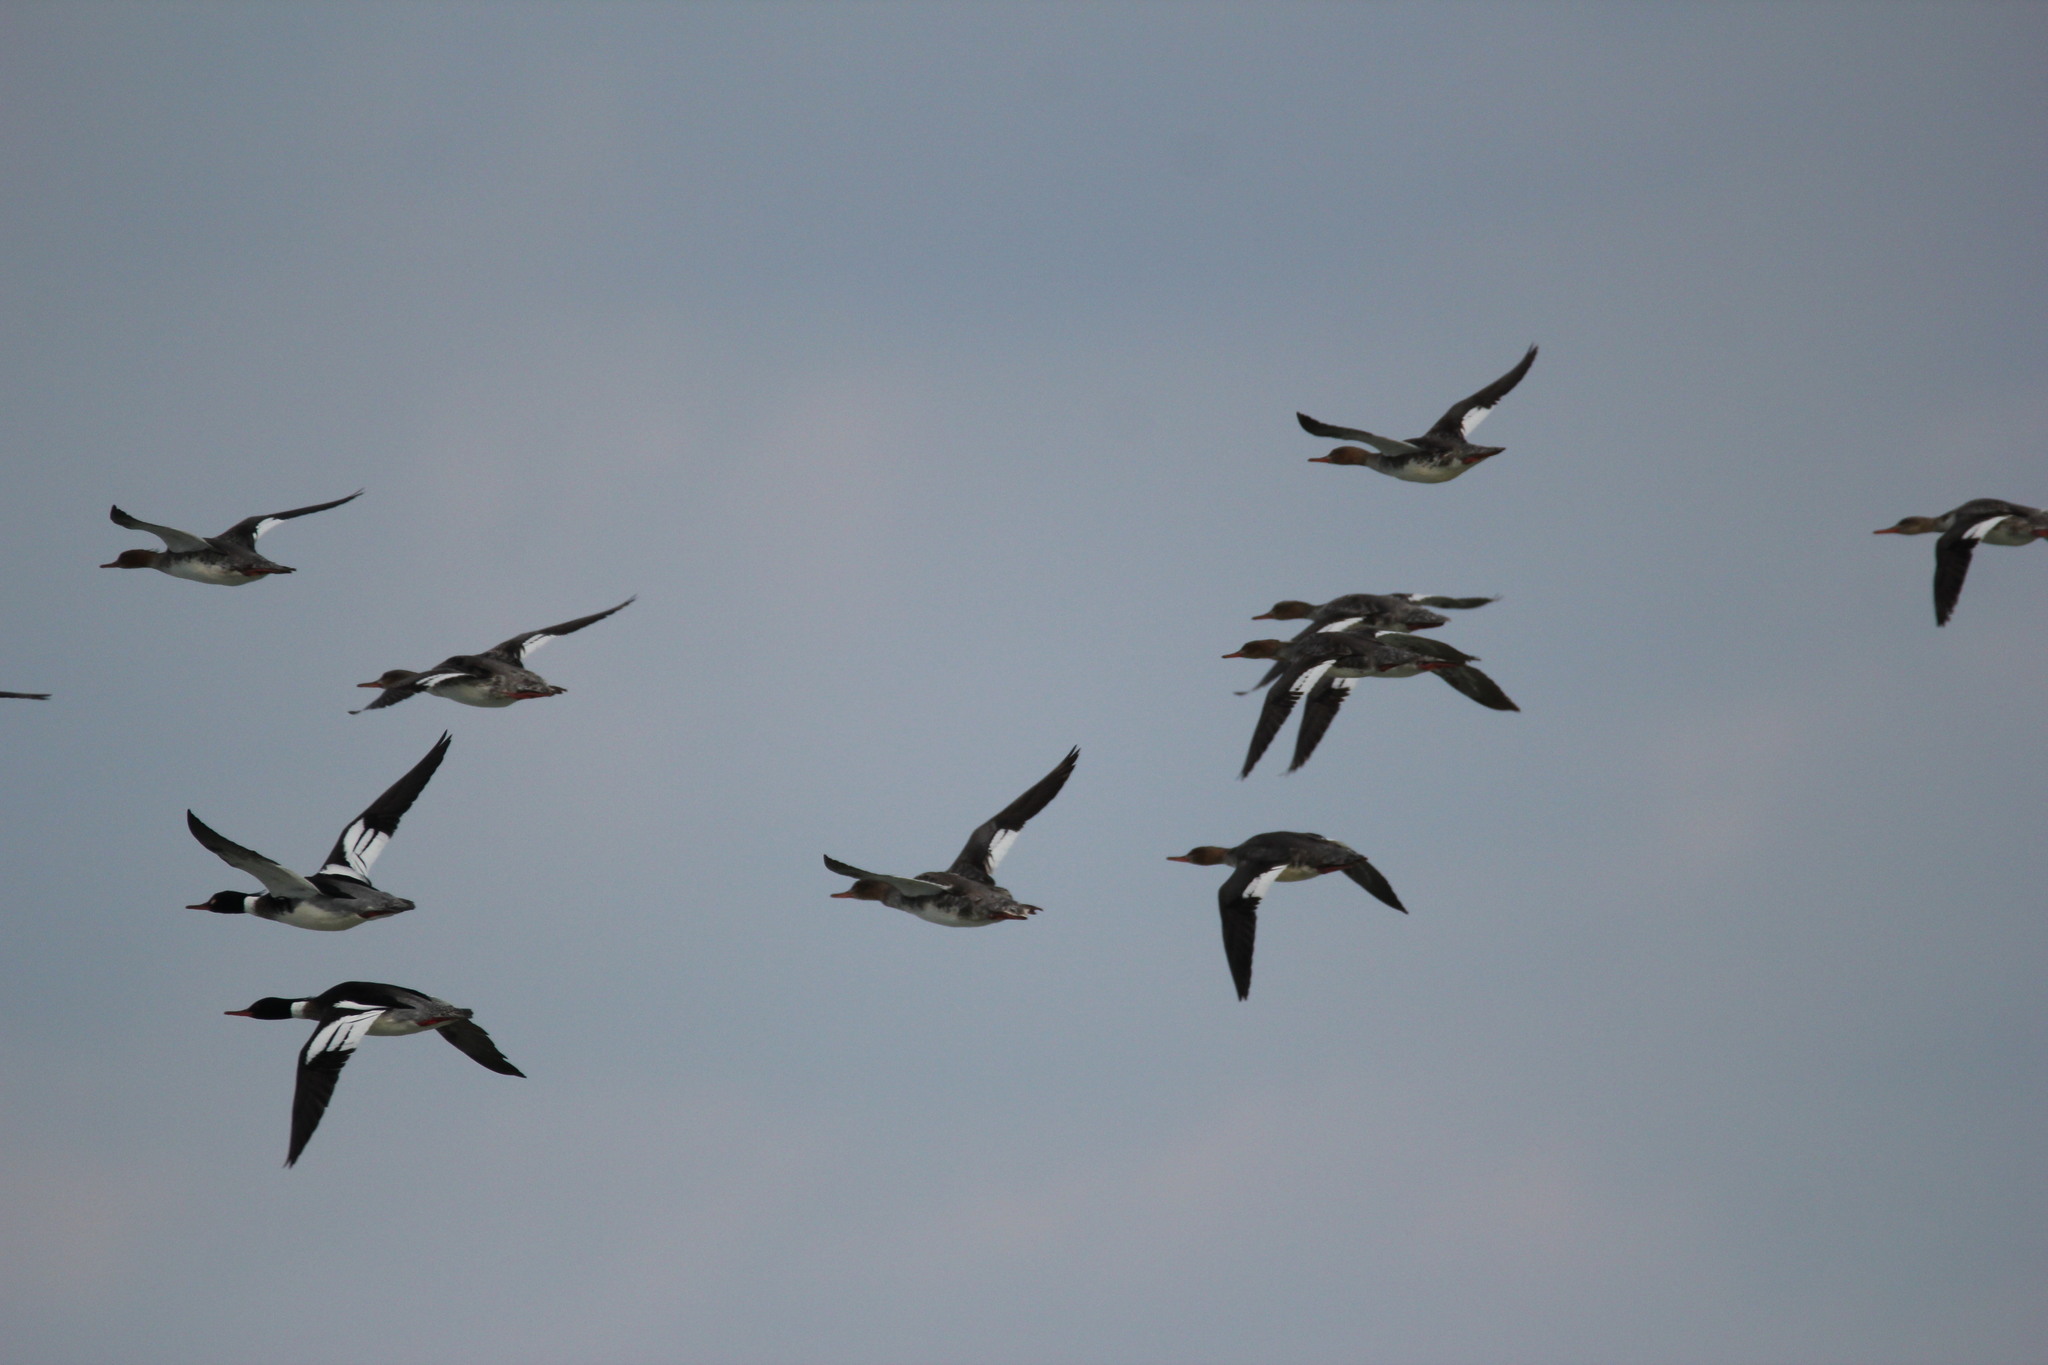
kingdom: Animalia
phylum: Chordata
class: Aves
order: Anseriformes
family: Anatidae
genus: Mergus
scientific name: Mergus serrator
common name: Red-breasted merganser
